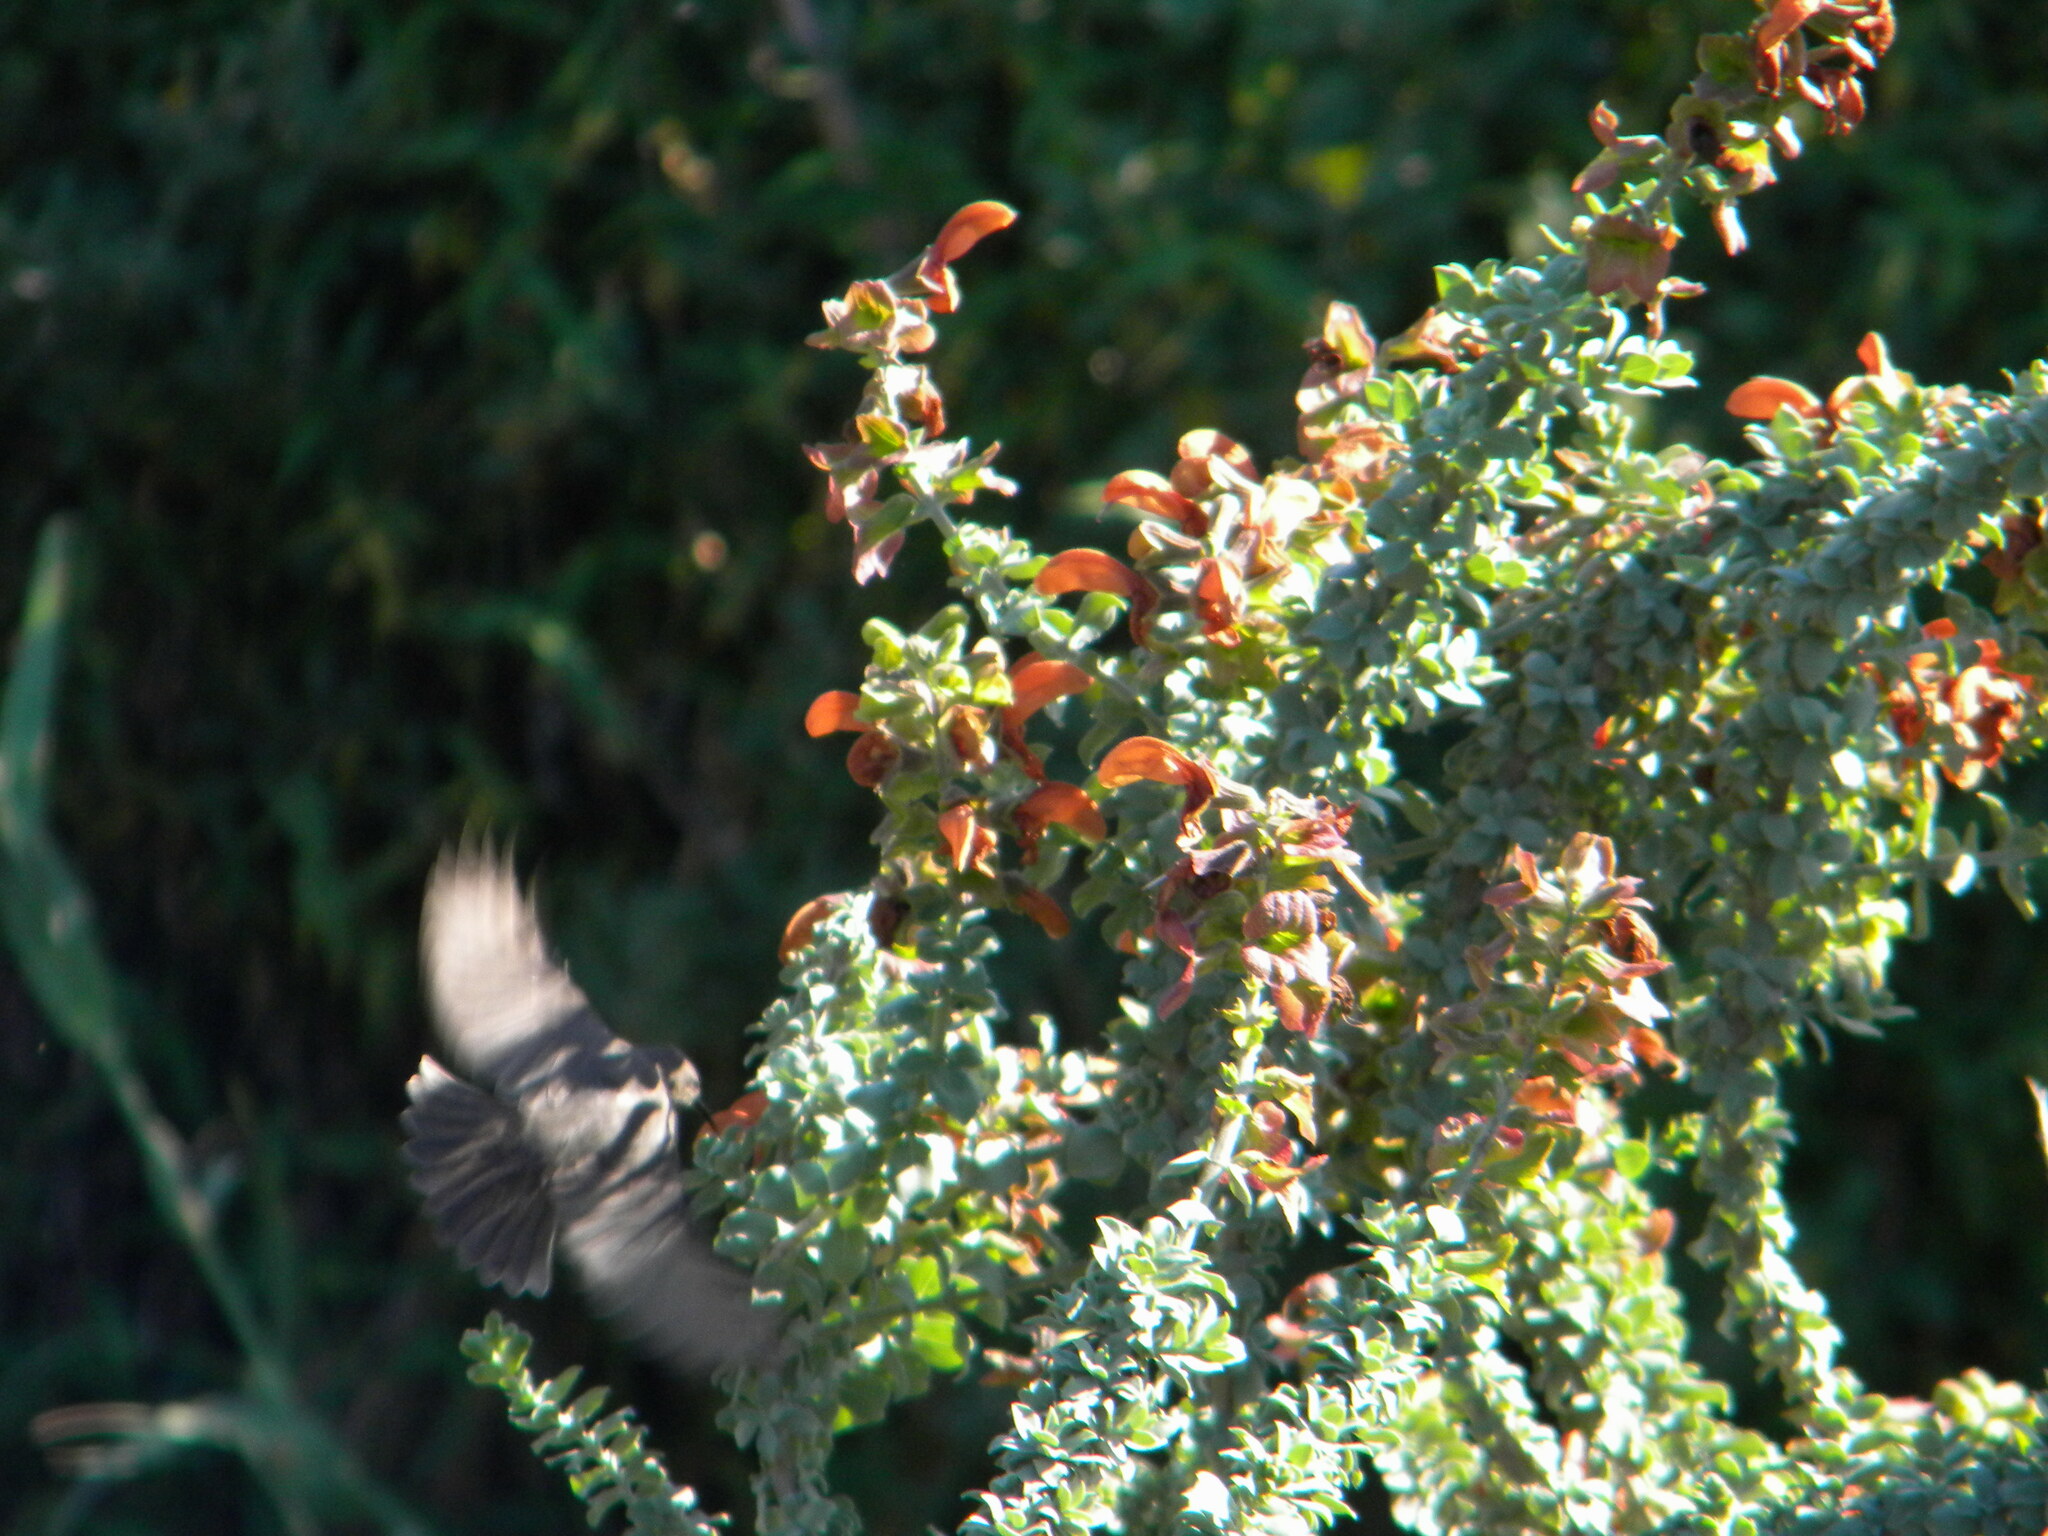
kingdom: Animalia
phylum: Chordata
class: Aves
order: Passeriformes
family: Nectariniidae
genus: Cinnyris
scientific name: Cinnyris chalybeus
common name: Southern double-collared sunbird
